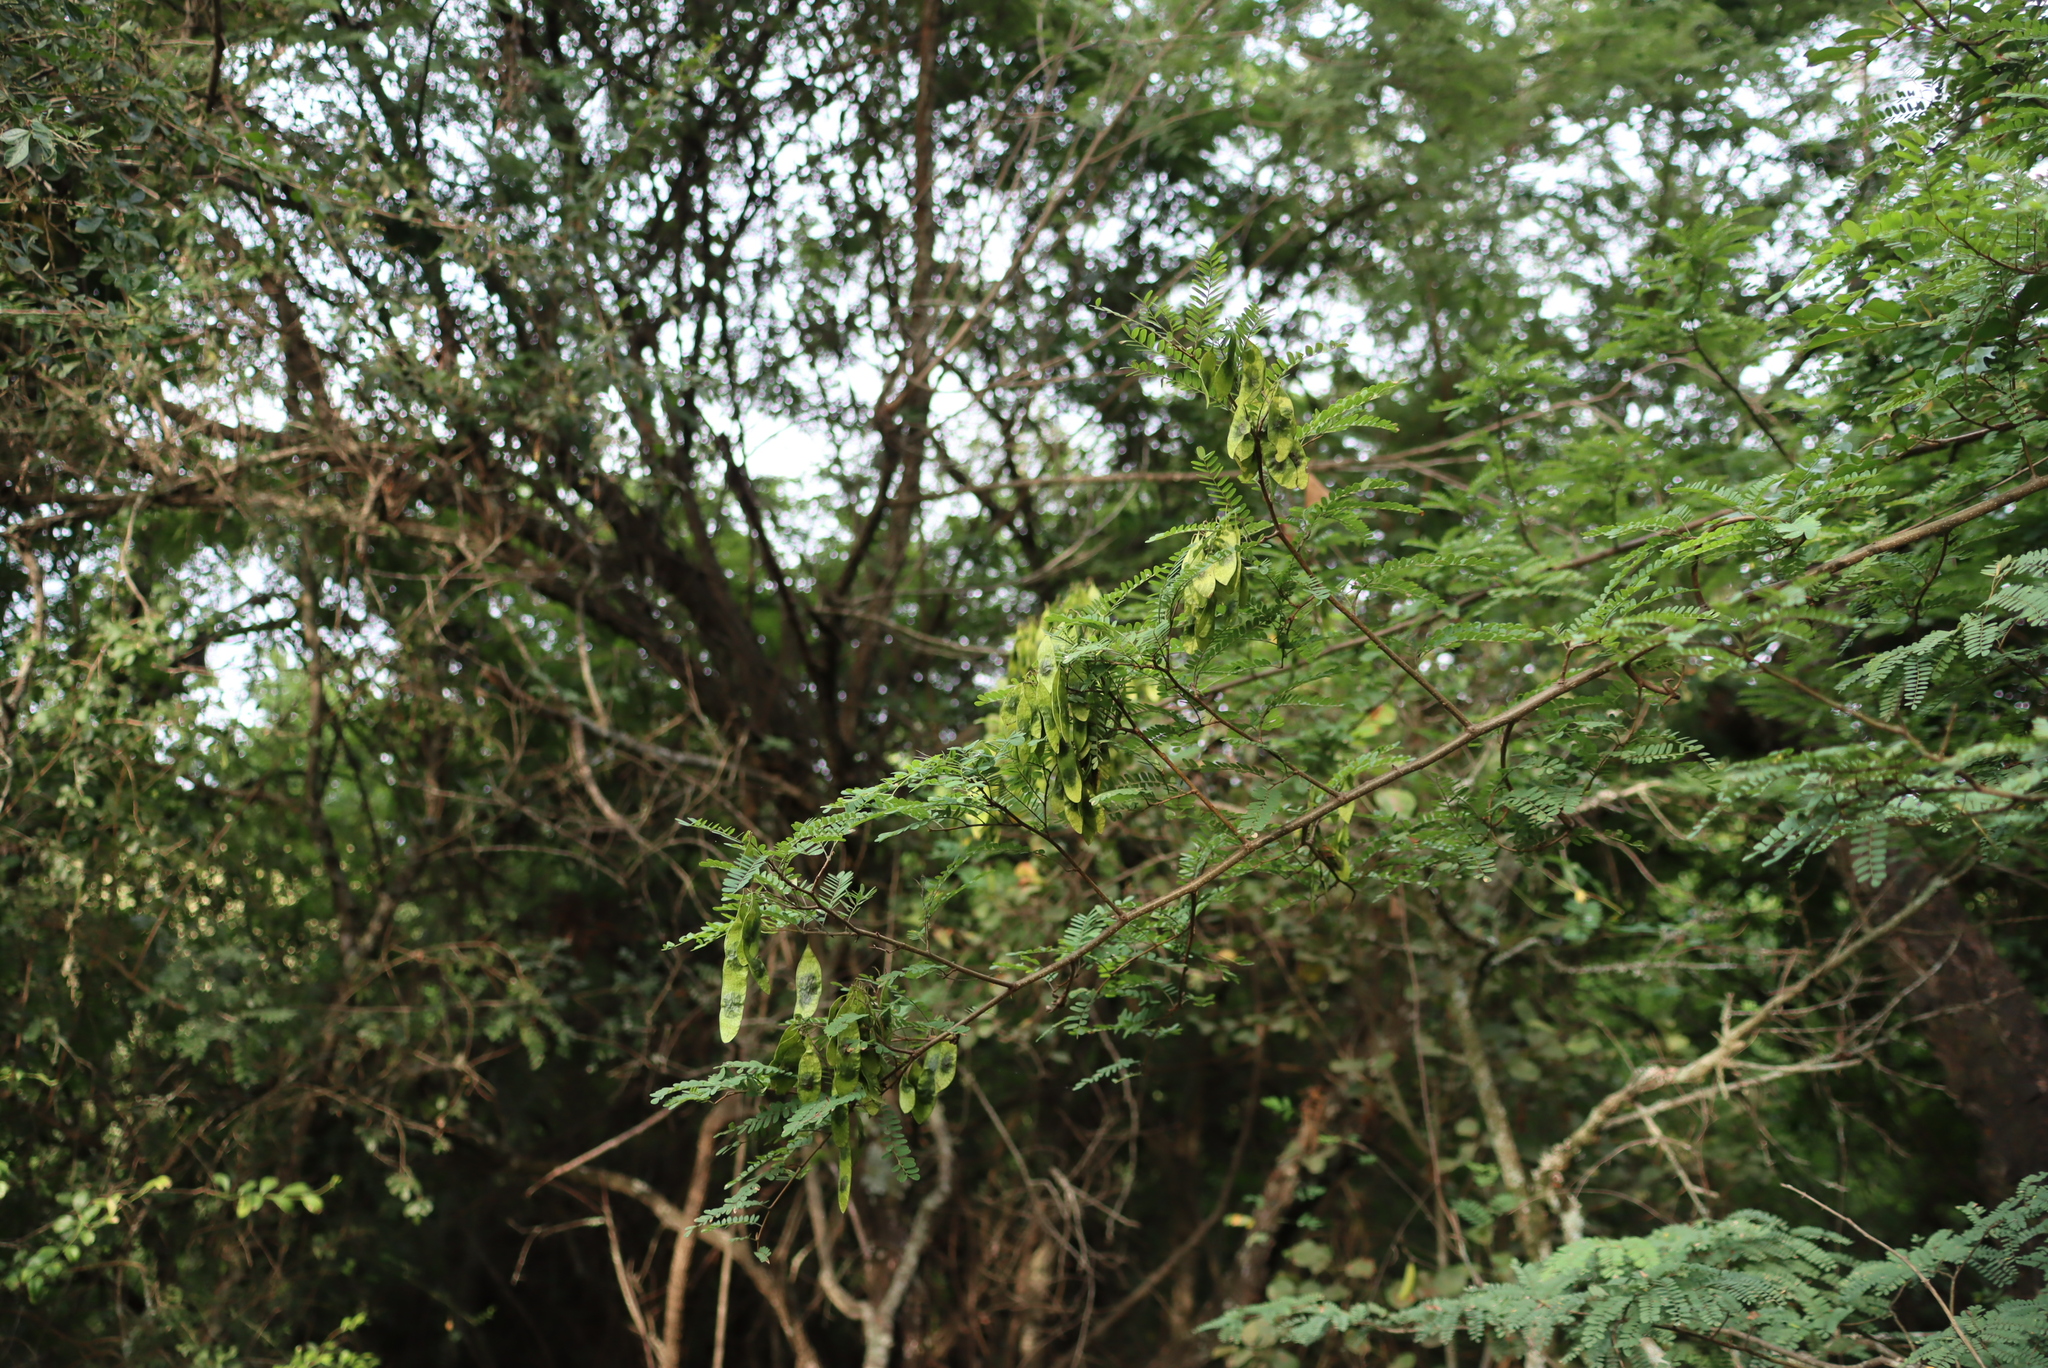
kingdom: Plantae
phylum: Tracheophyta
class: Magnoliopsida
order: Fabales
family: Fabaceae
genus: Dalbergia
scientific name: Dalbergia armata
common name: Hluhluwe climber
